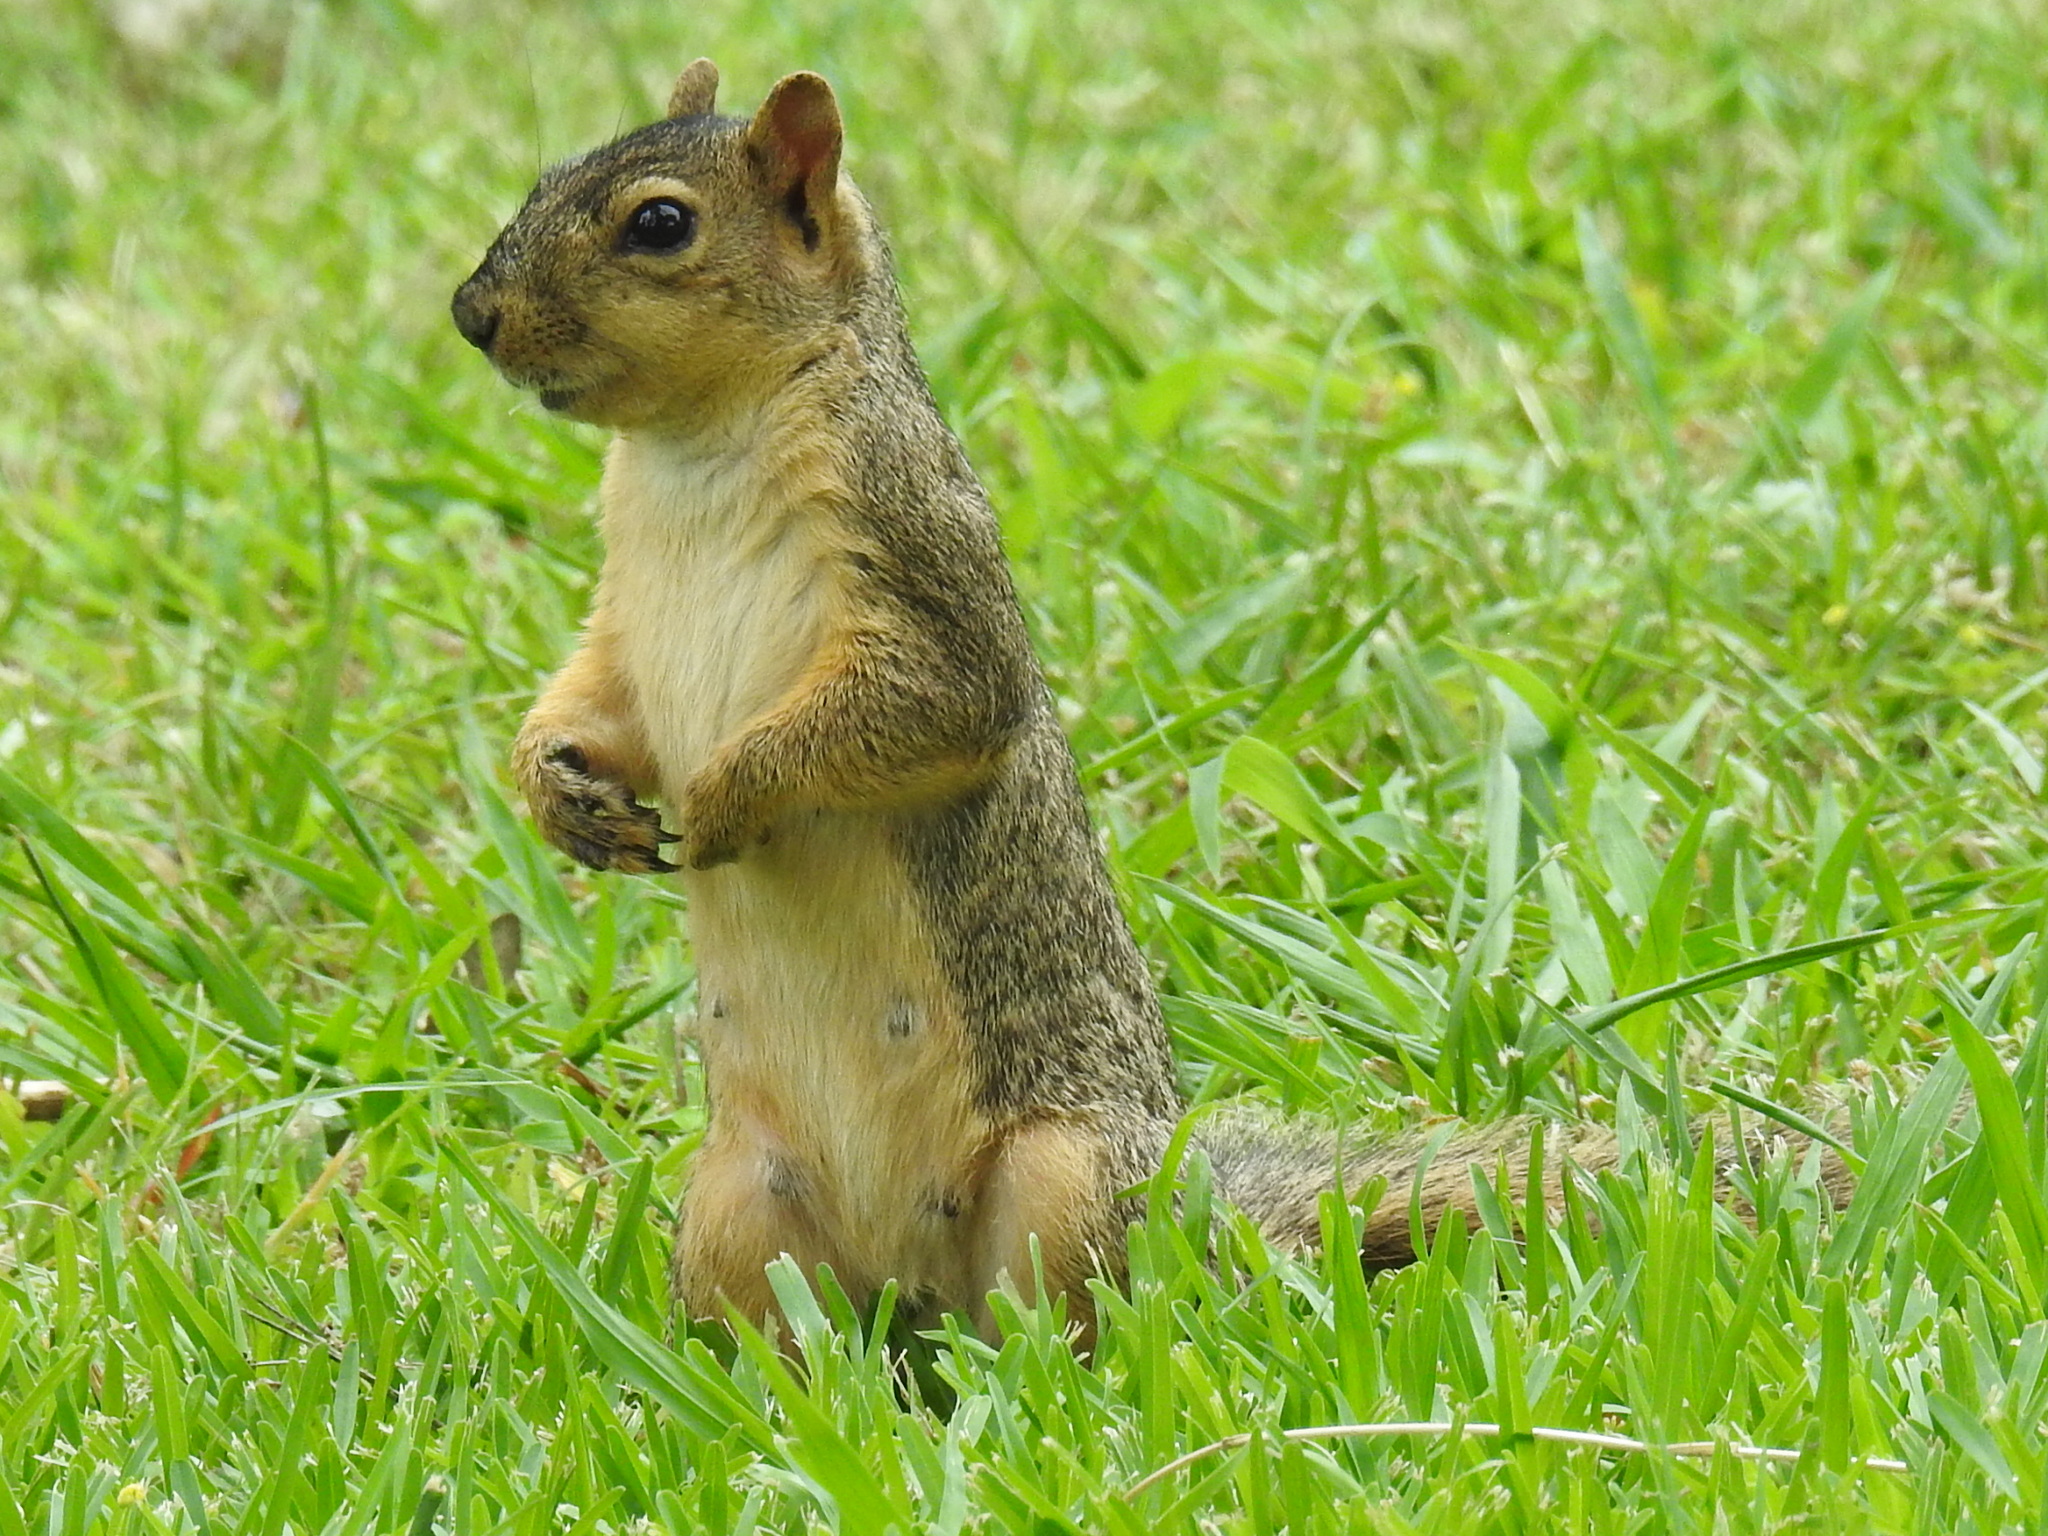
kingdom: Animalia
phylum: Chordata
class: Mammalia
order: Rodentia
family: Sciuridae
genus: Sciurus
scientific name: Sciurus niger
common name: Fox squirrel
